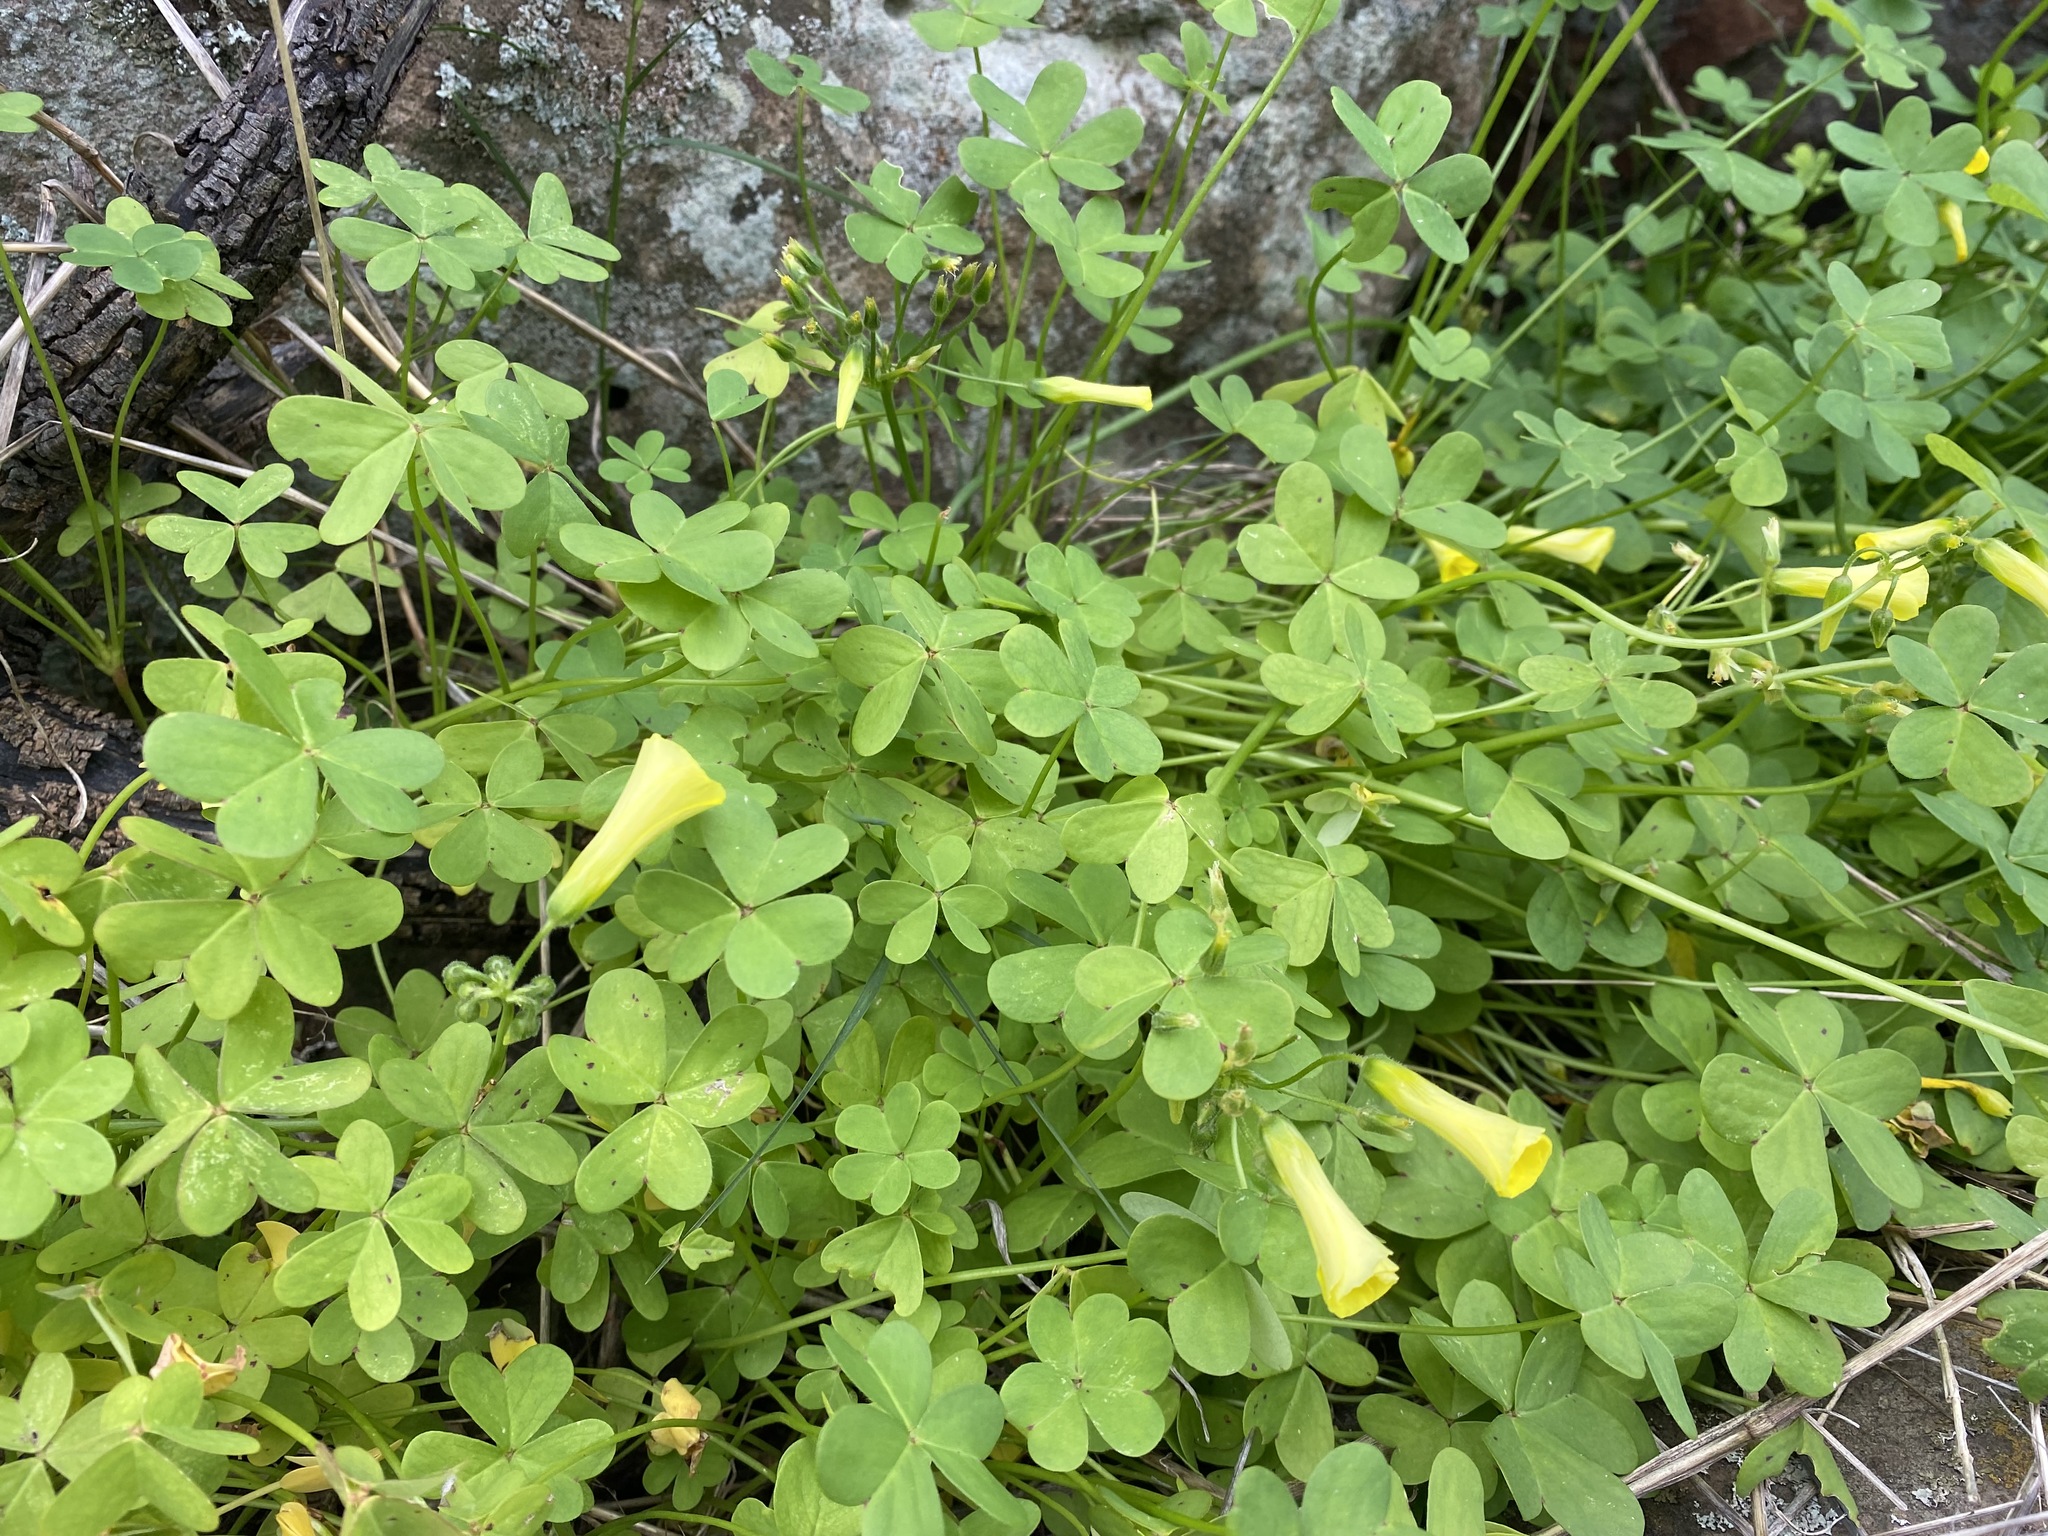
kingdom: Plantae
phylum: Tracheophyta
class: Magnoliopsida
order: Oxalidales
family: Oxalidaceae
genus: Oxalis
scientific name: Oxalis pes-caprae
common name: Bermuda-buttercup
